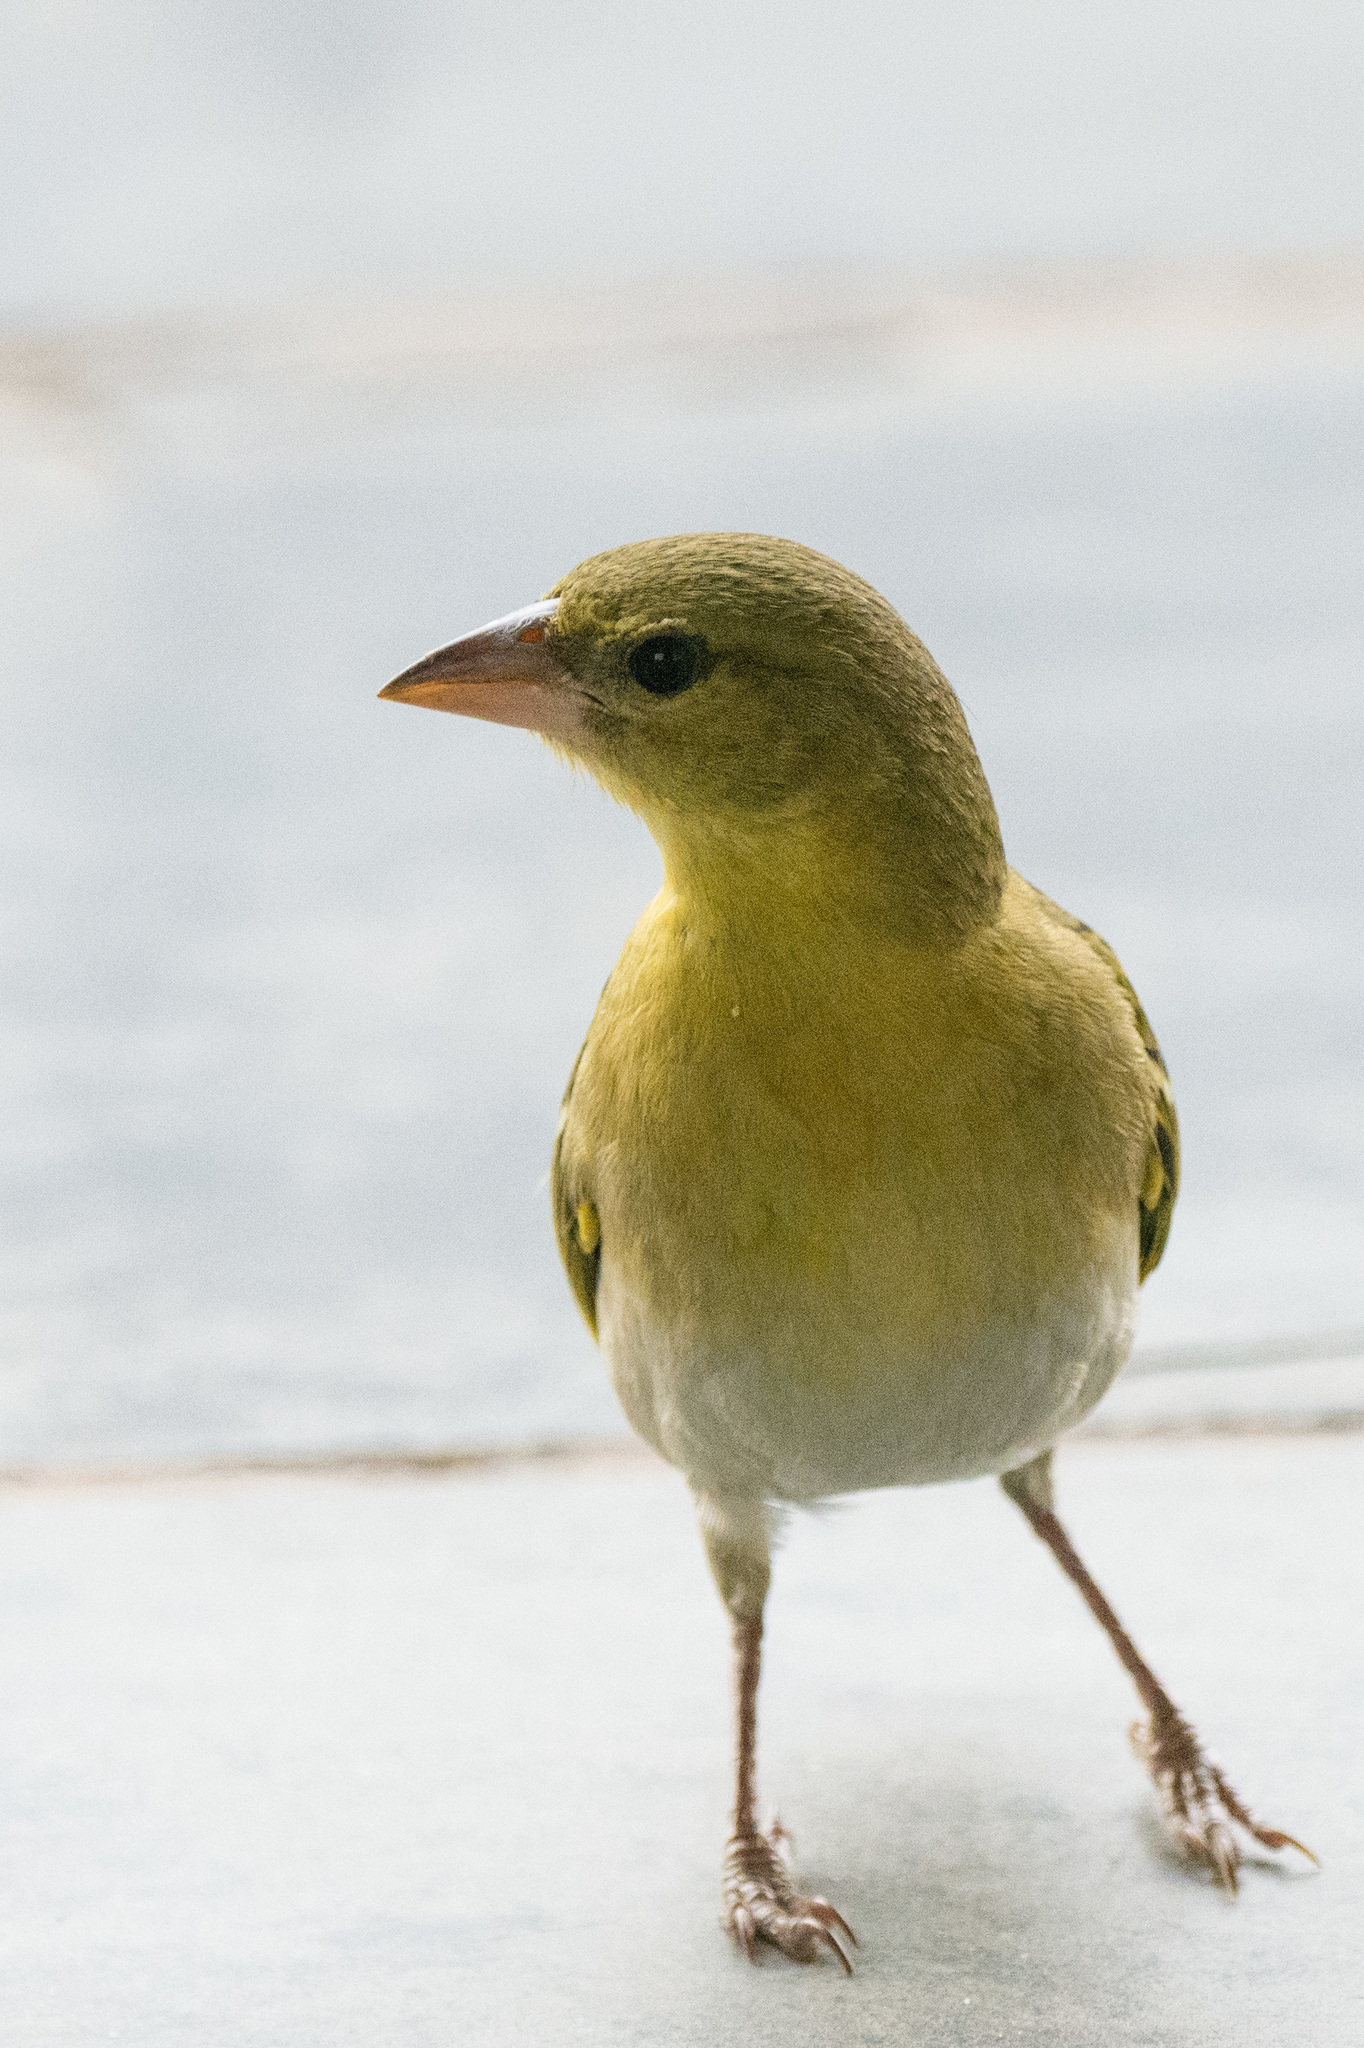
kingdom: Animalia
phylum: Chordata
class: Aves
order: Passeriformes
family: Ploceidae
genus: Ploceus
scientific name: Ploceus velatus
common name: Southern masked weaver
